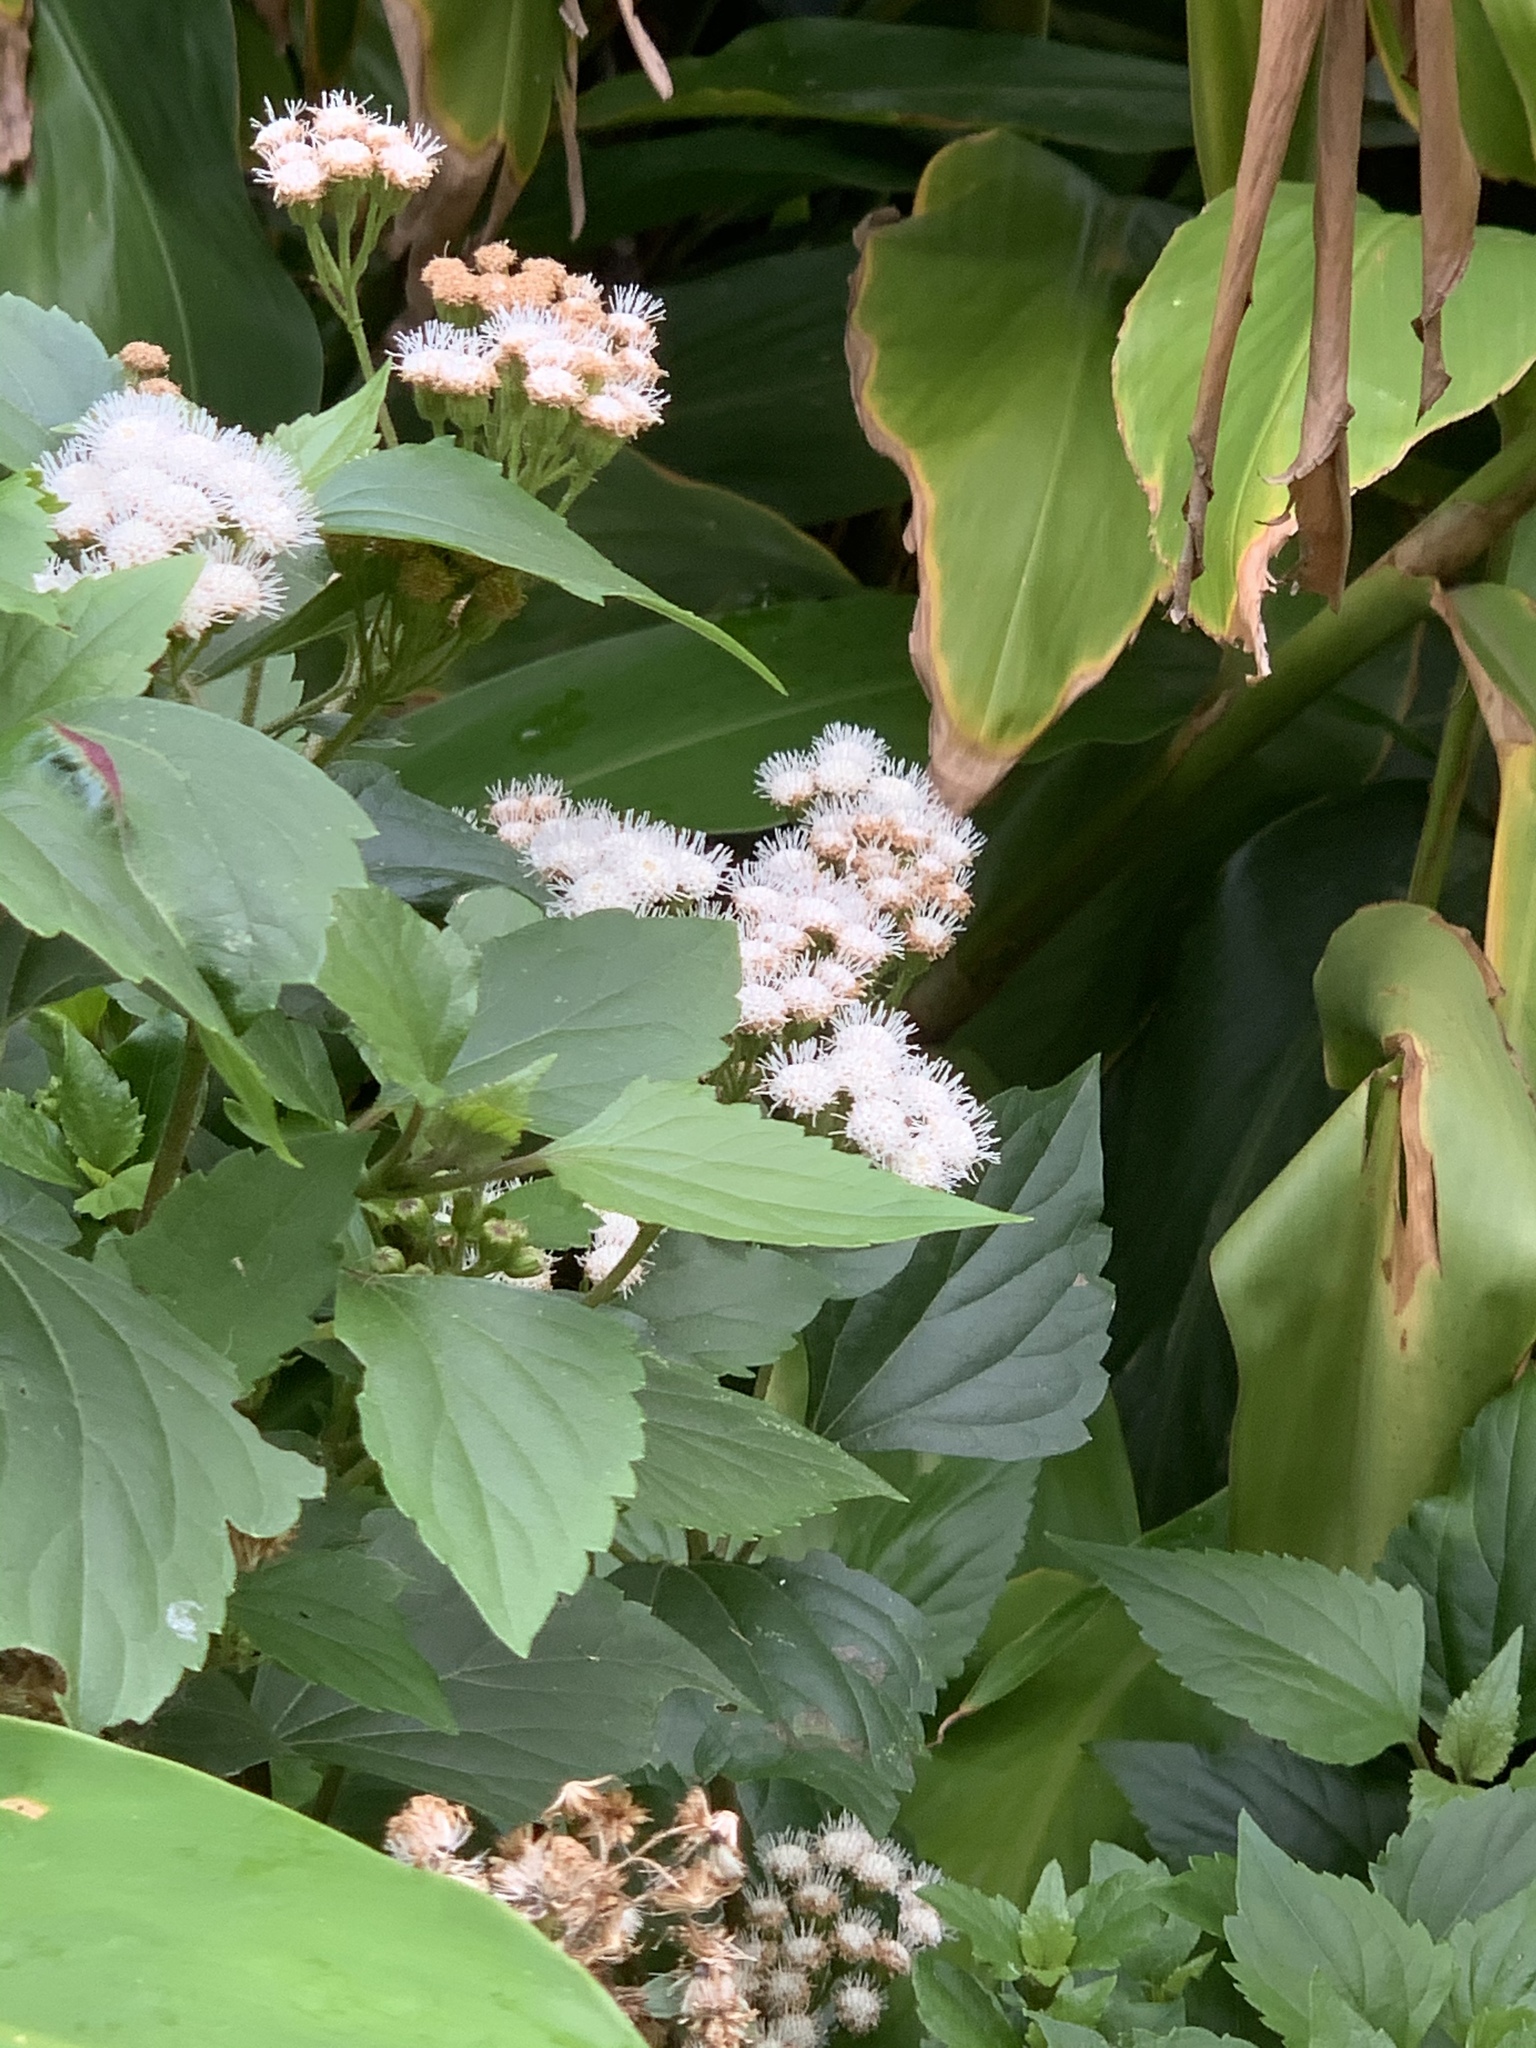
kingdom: Plantae
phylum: Tracheophyta
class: Magnoliopsida
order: Asterales
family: Asteraceae
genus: Ageratina
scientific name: Ageratina adenophora
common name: Sticky snakeroot
